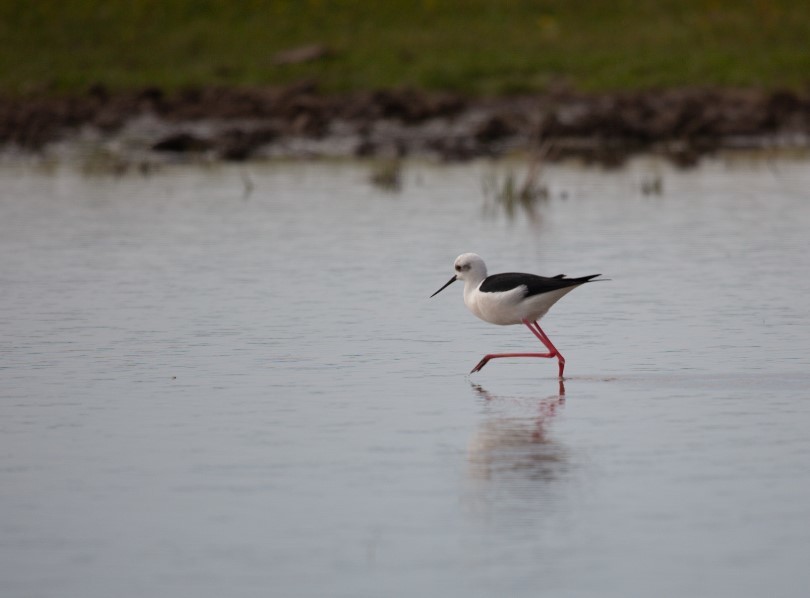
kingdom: Animalia
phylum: Chordata
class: Aves
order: Charadriiformes
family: Recurvirostridae
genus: Himantopus
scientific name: Himantopus himantopus
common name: Black-winged stilt
